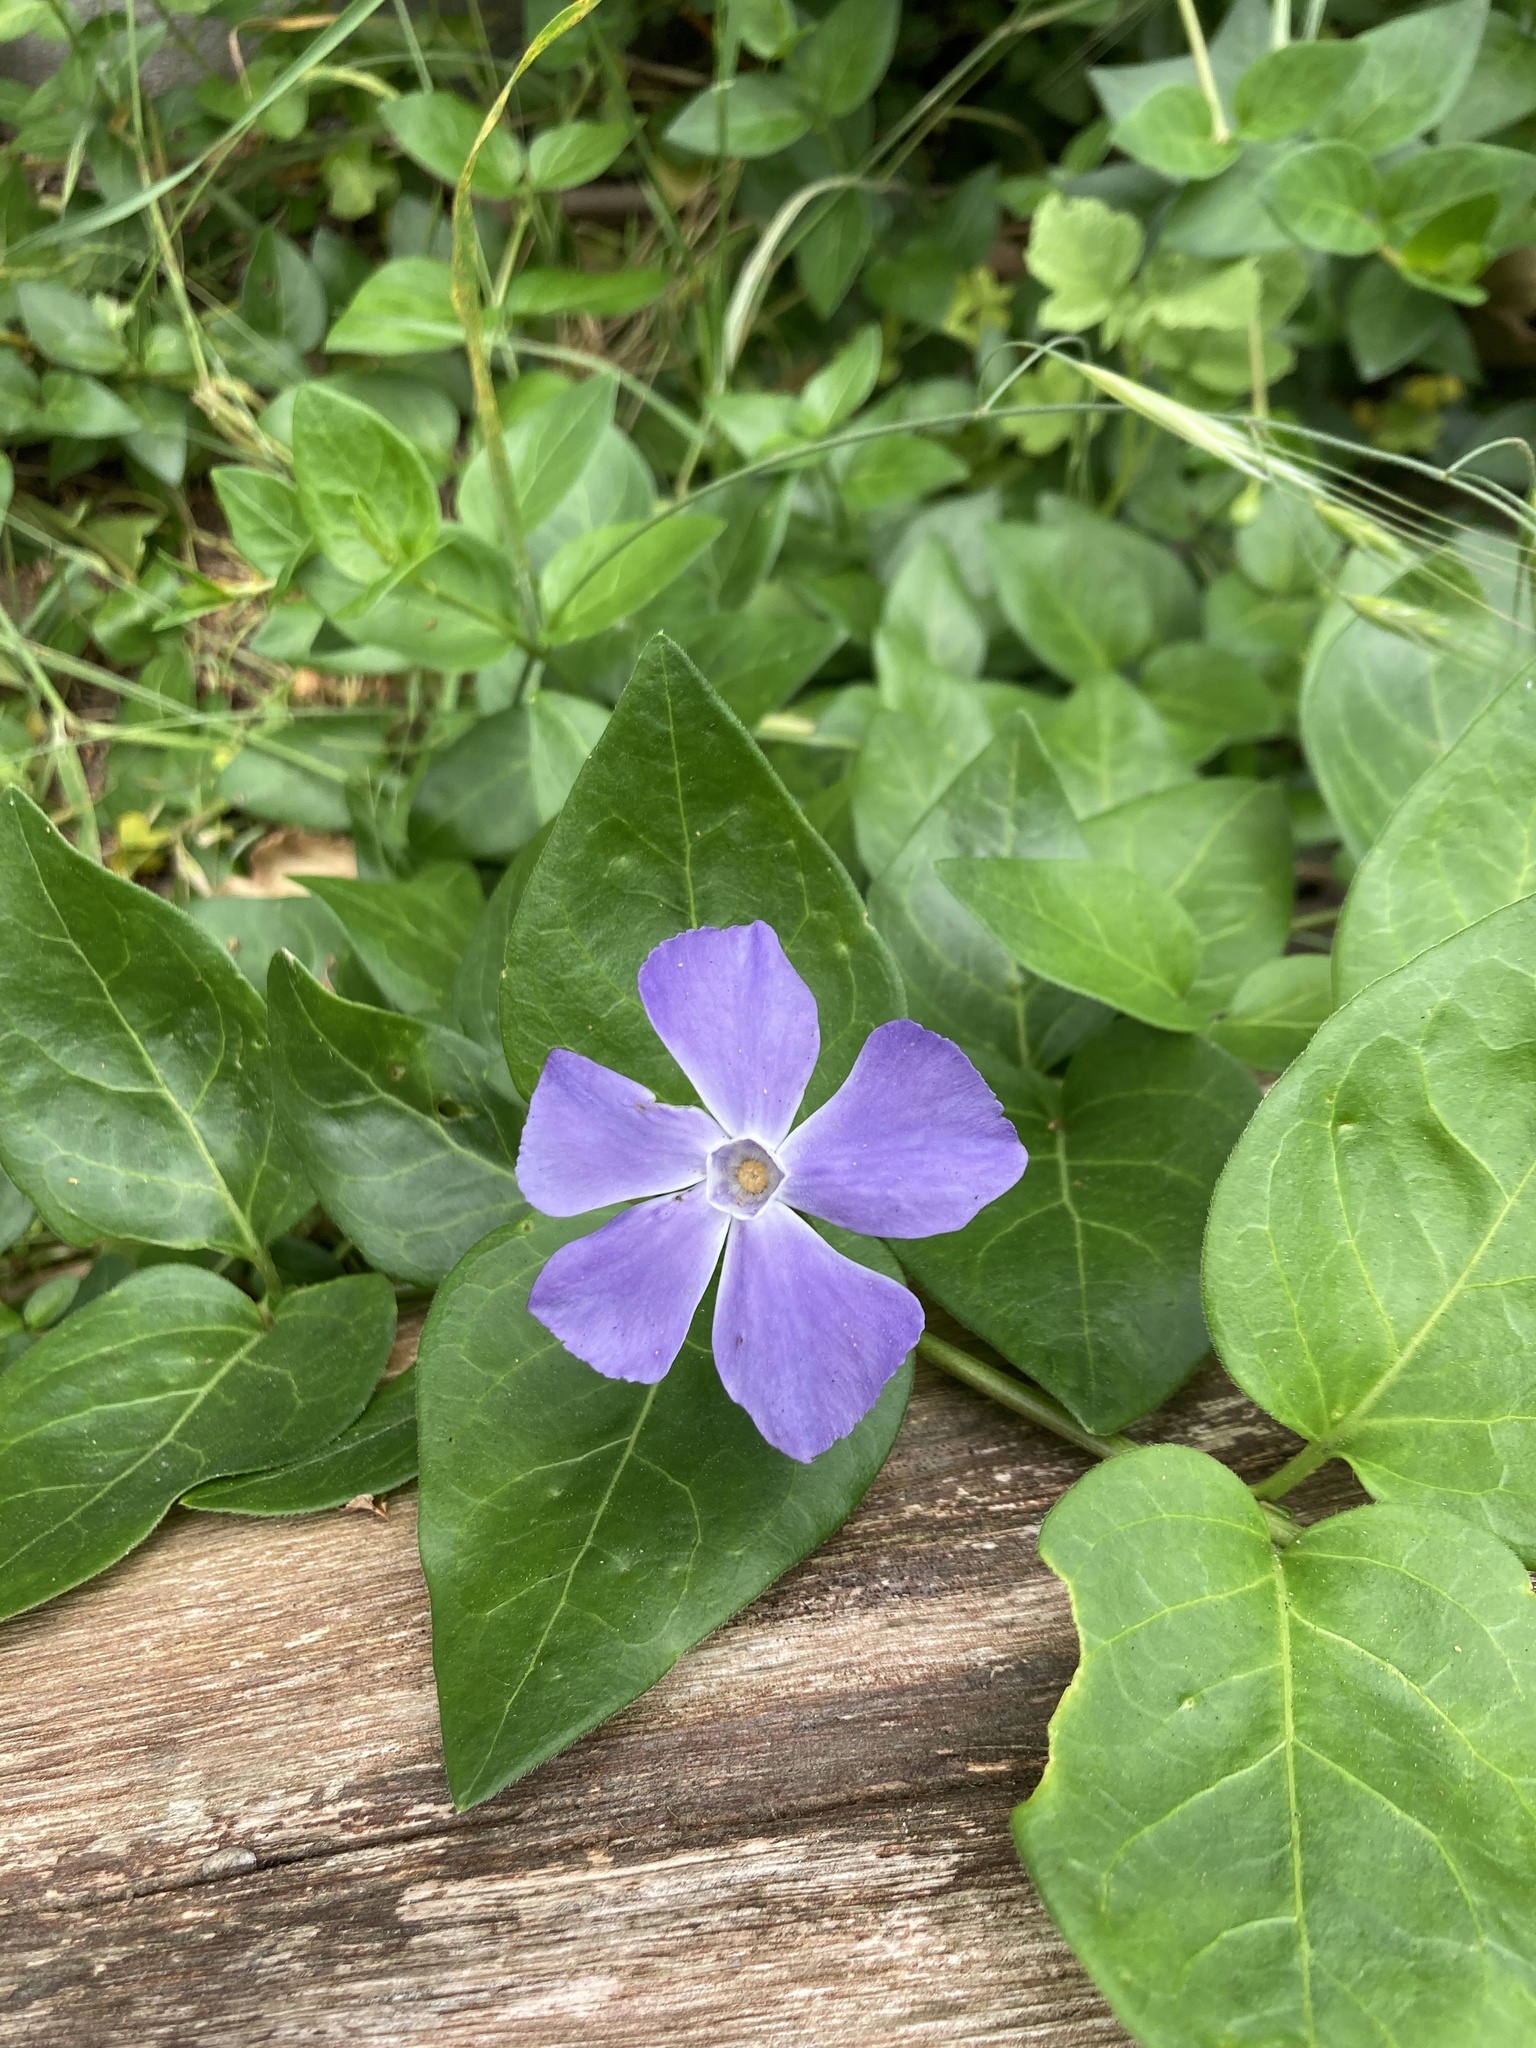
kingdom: Plantae
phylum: Tracheophyta
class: Magnoliopsida
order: Gentianales
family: Apocynaceae
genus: Vinca
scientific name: Vinca major
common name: Greater periwinkle
